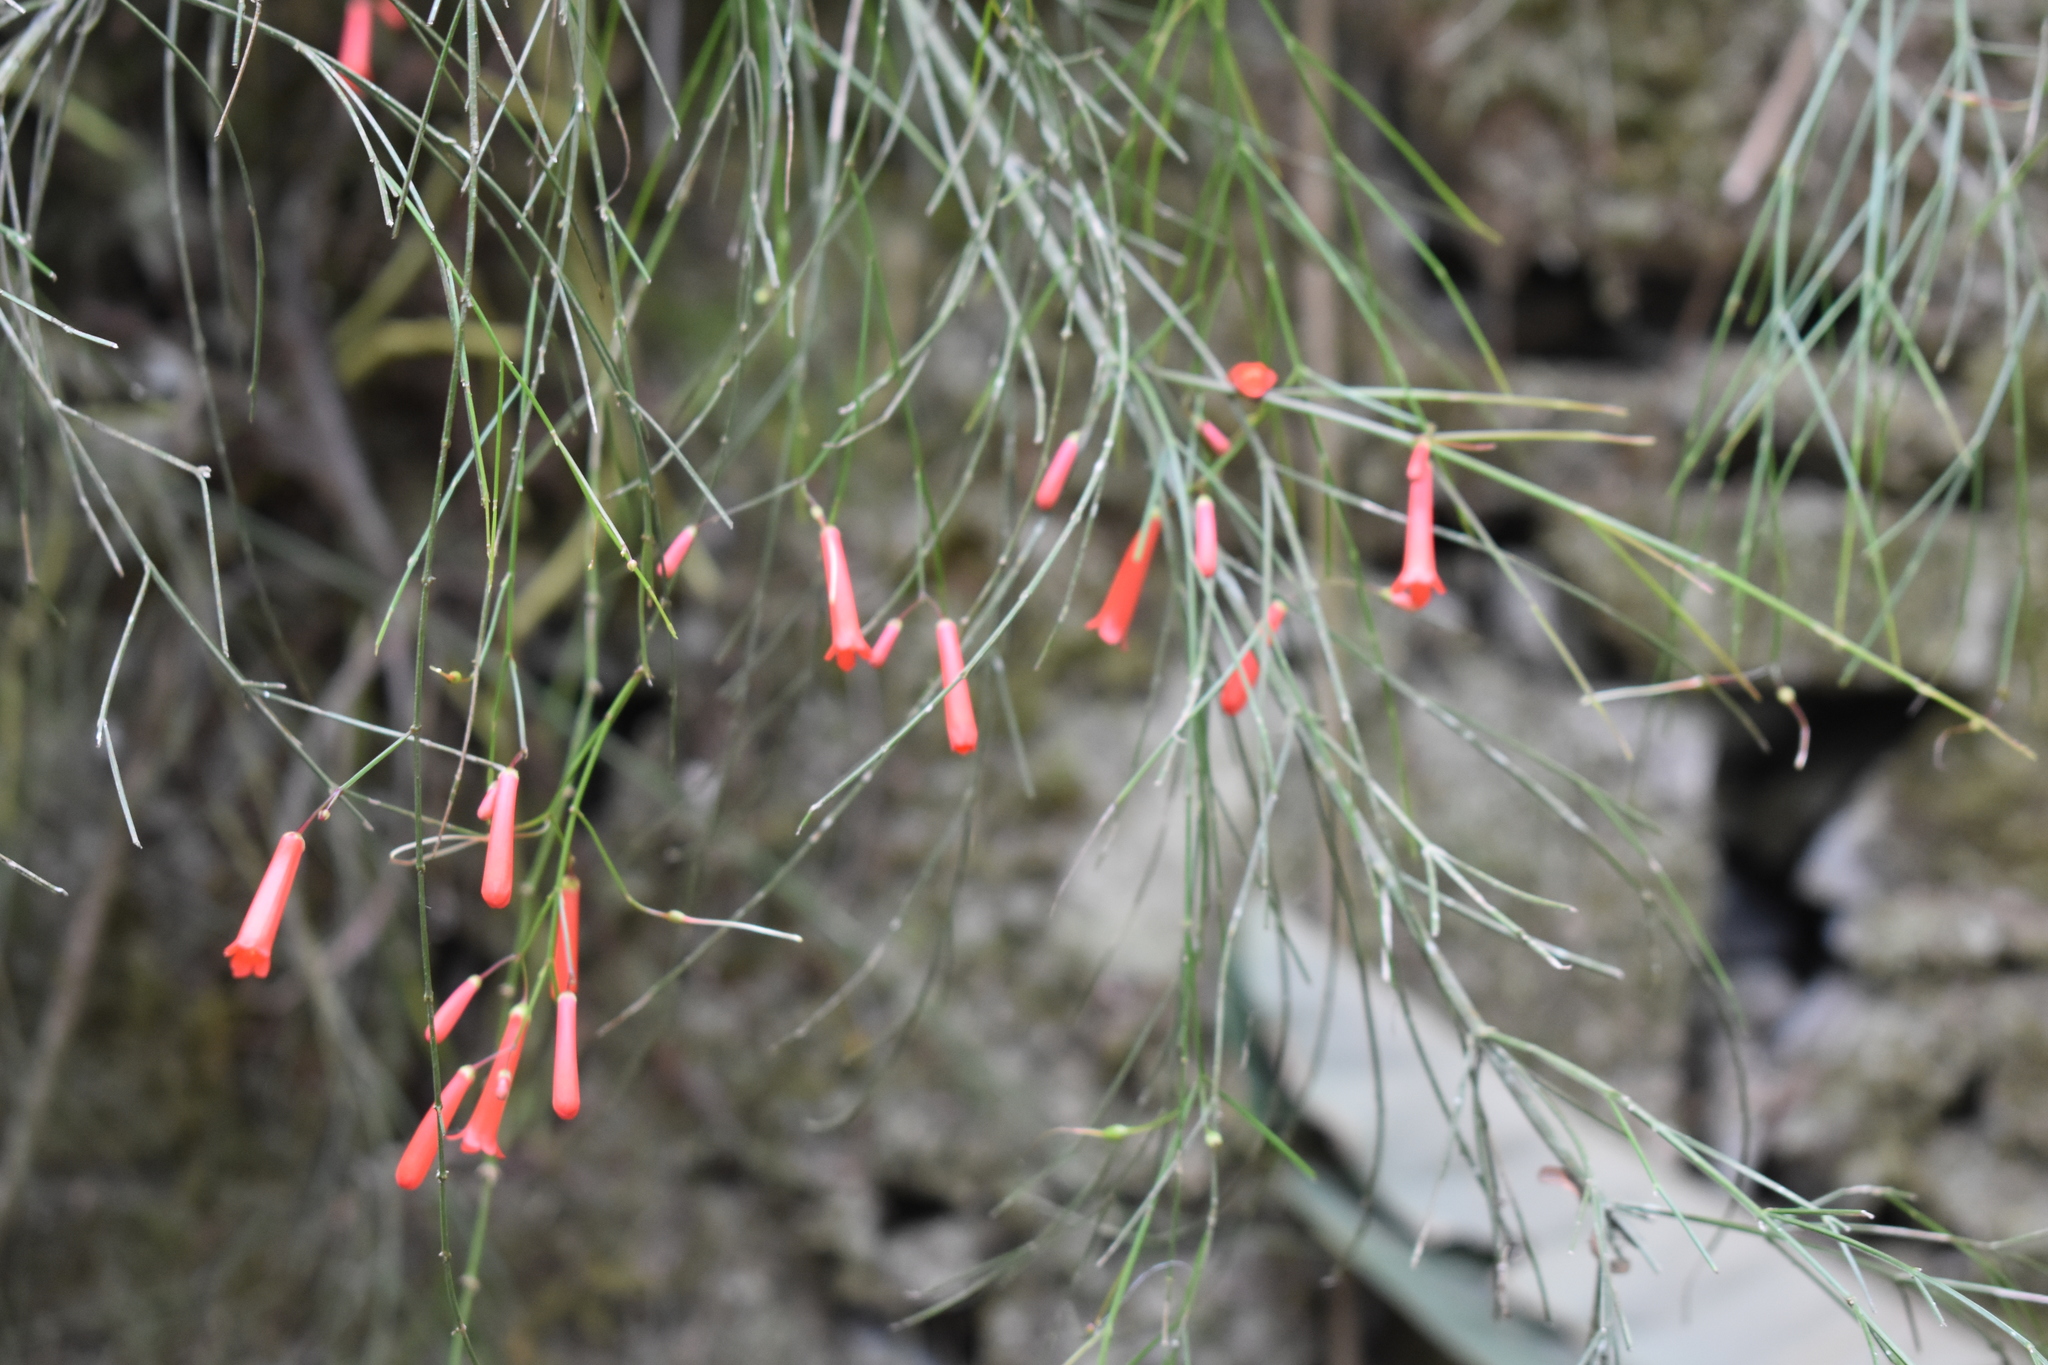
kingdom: Plantae
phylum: Tracheophyta
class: Magnoliopsida
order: Lamiales
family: Plantaginaceae
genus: Russelia
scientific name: Russelia equisetiformis
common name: Fountainbush
